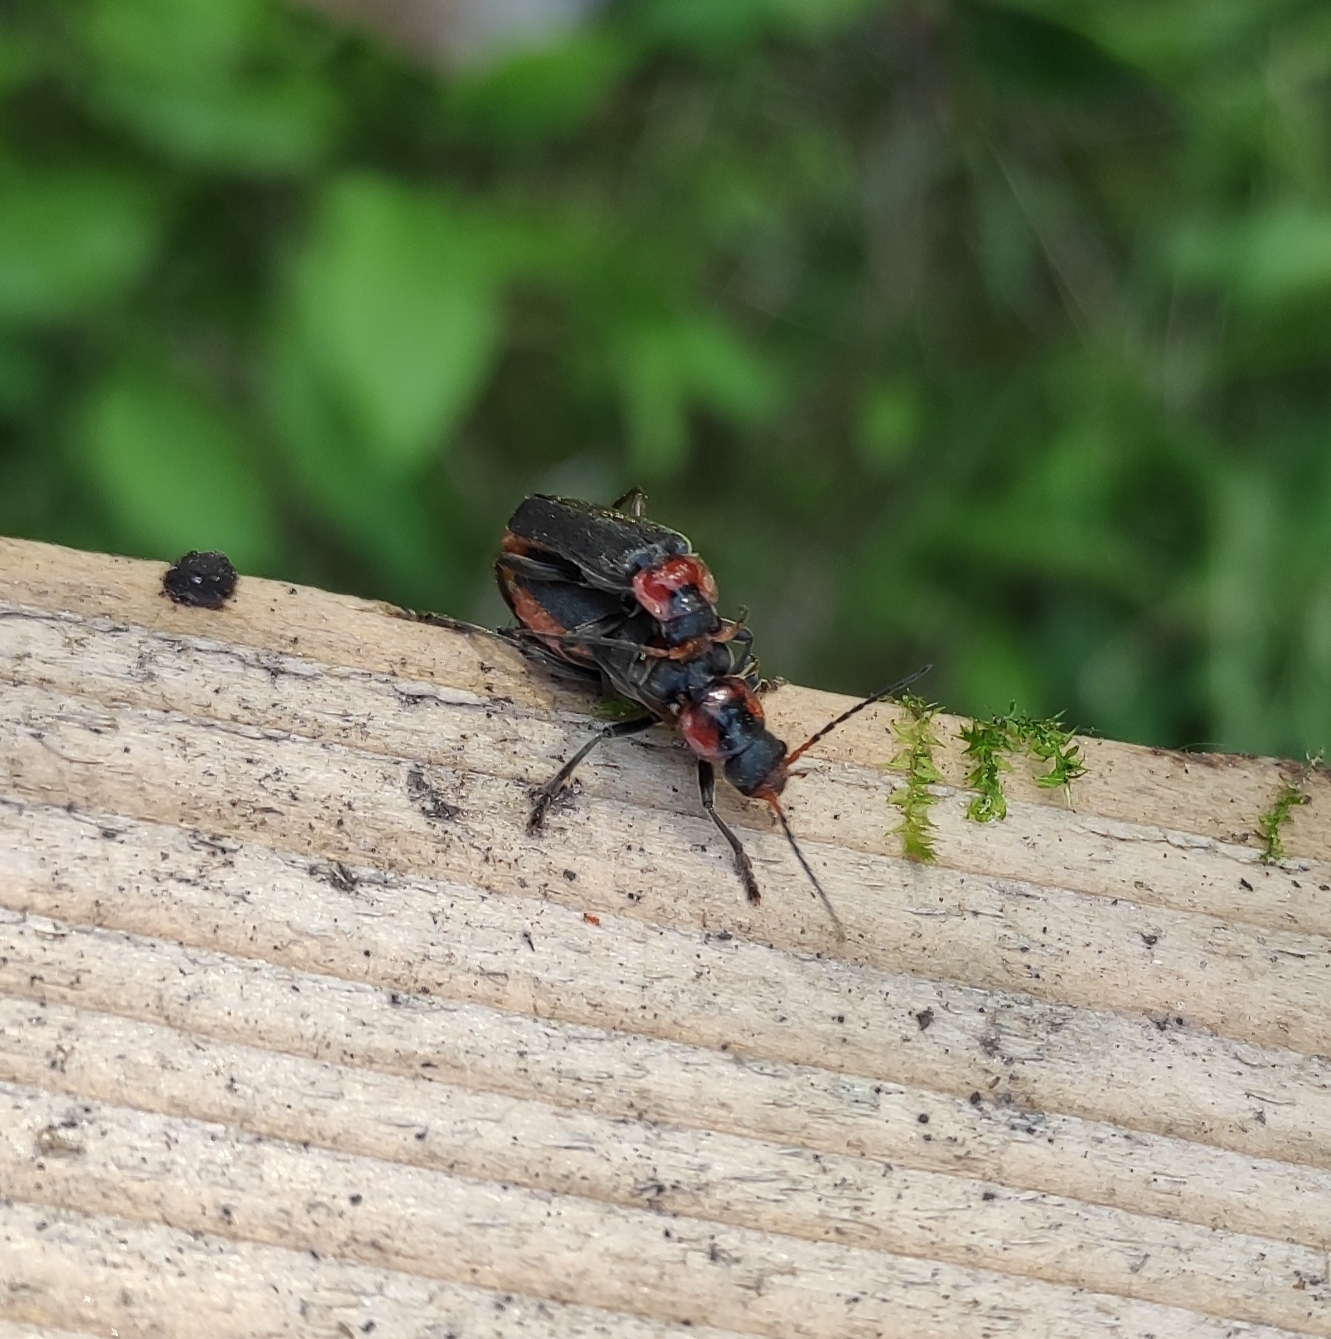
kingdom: Animalia
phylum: Arthropoda
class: Insecta
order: Coleoptera
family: Cantharidae
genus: Cantharis
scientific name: Cantharis fusca
